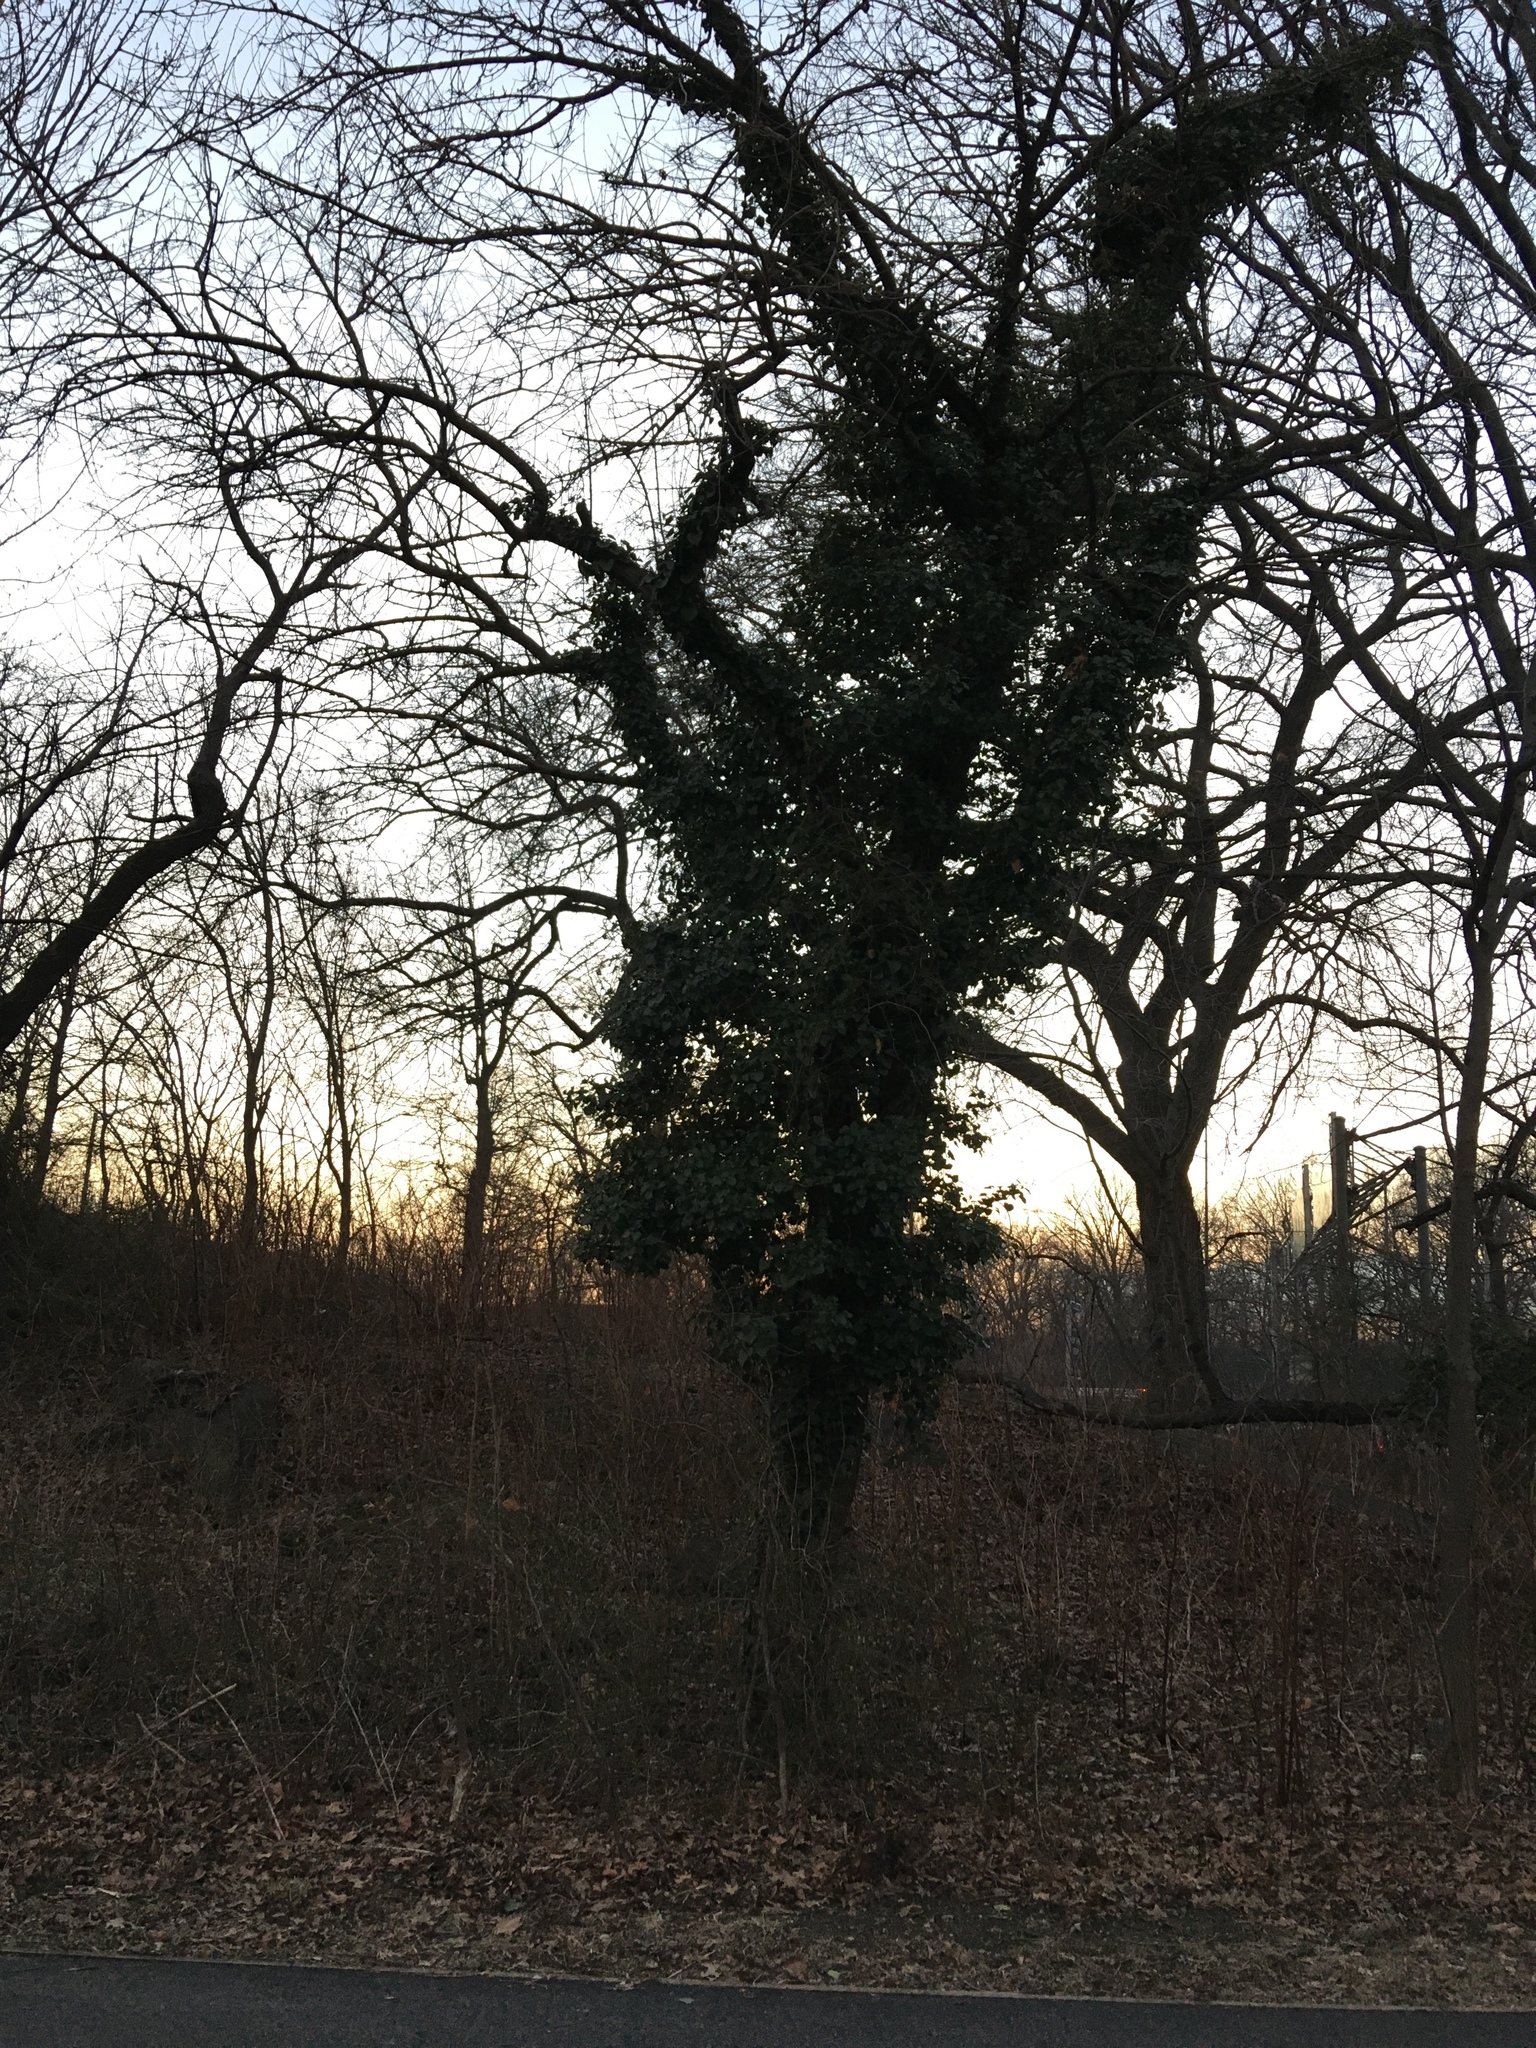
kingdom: Plantae
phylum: Tracheophyta
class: Magnoliopsida
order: Apiales
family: Araliaceae
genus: Hedera
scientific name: Hedera helix
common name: Ivy
